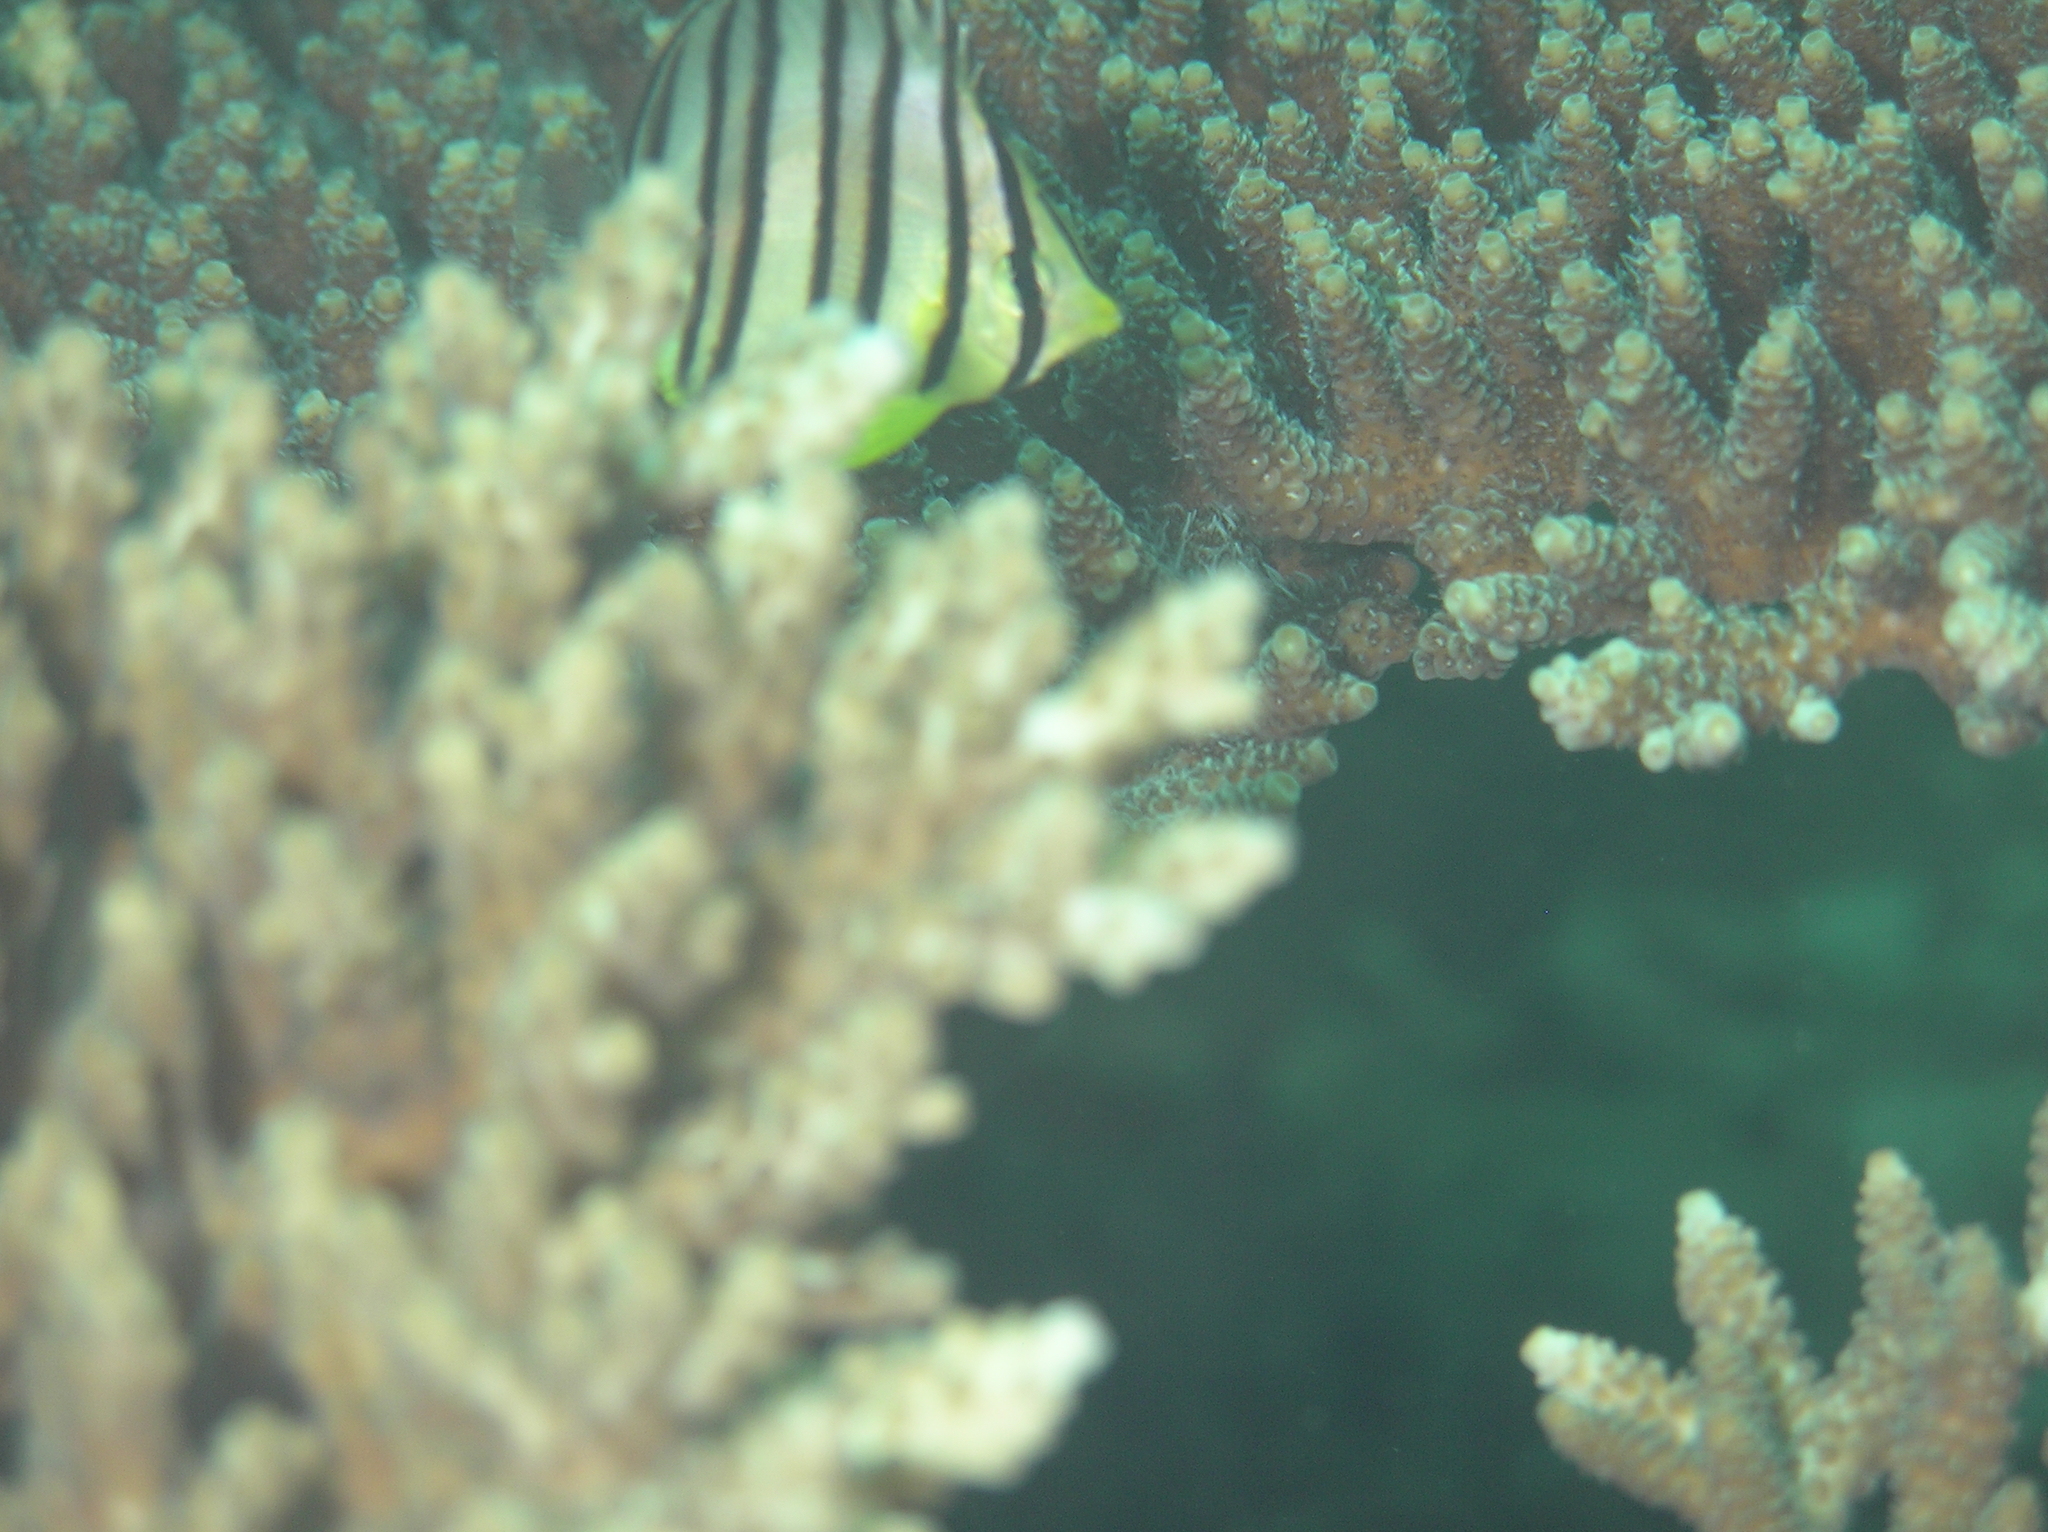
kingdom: Animalia
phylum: Chordata
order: Perciformes
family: Chaetodontidae
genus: Chaetodon
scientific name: Chaetodon octofasciatus
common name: Eightband butterflyfish
